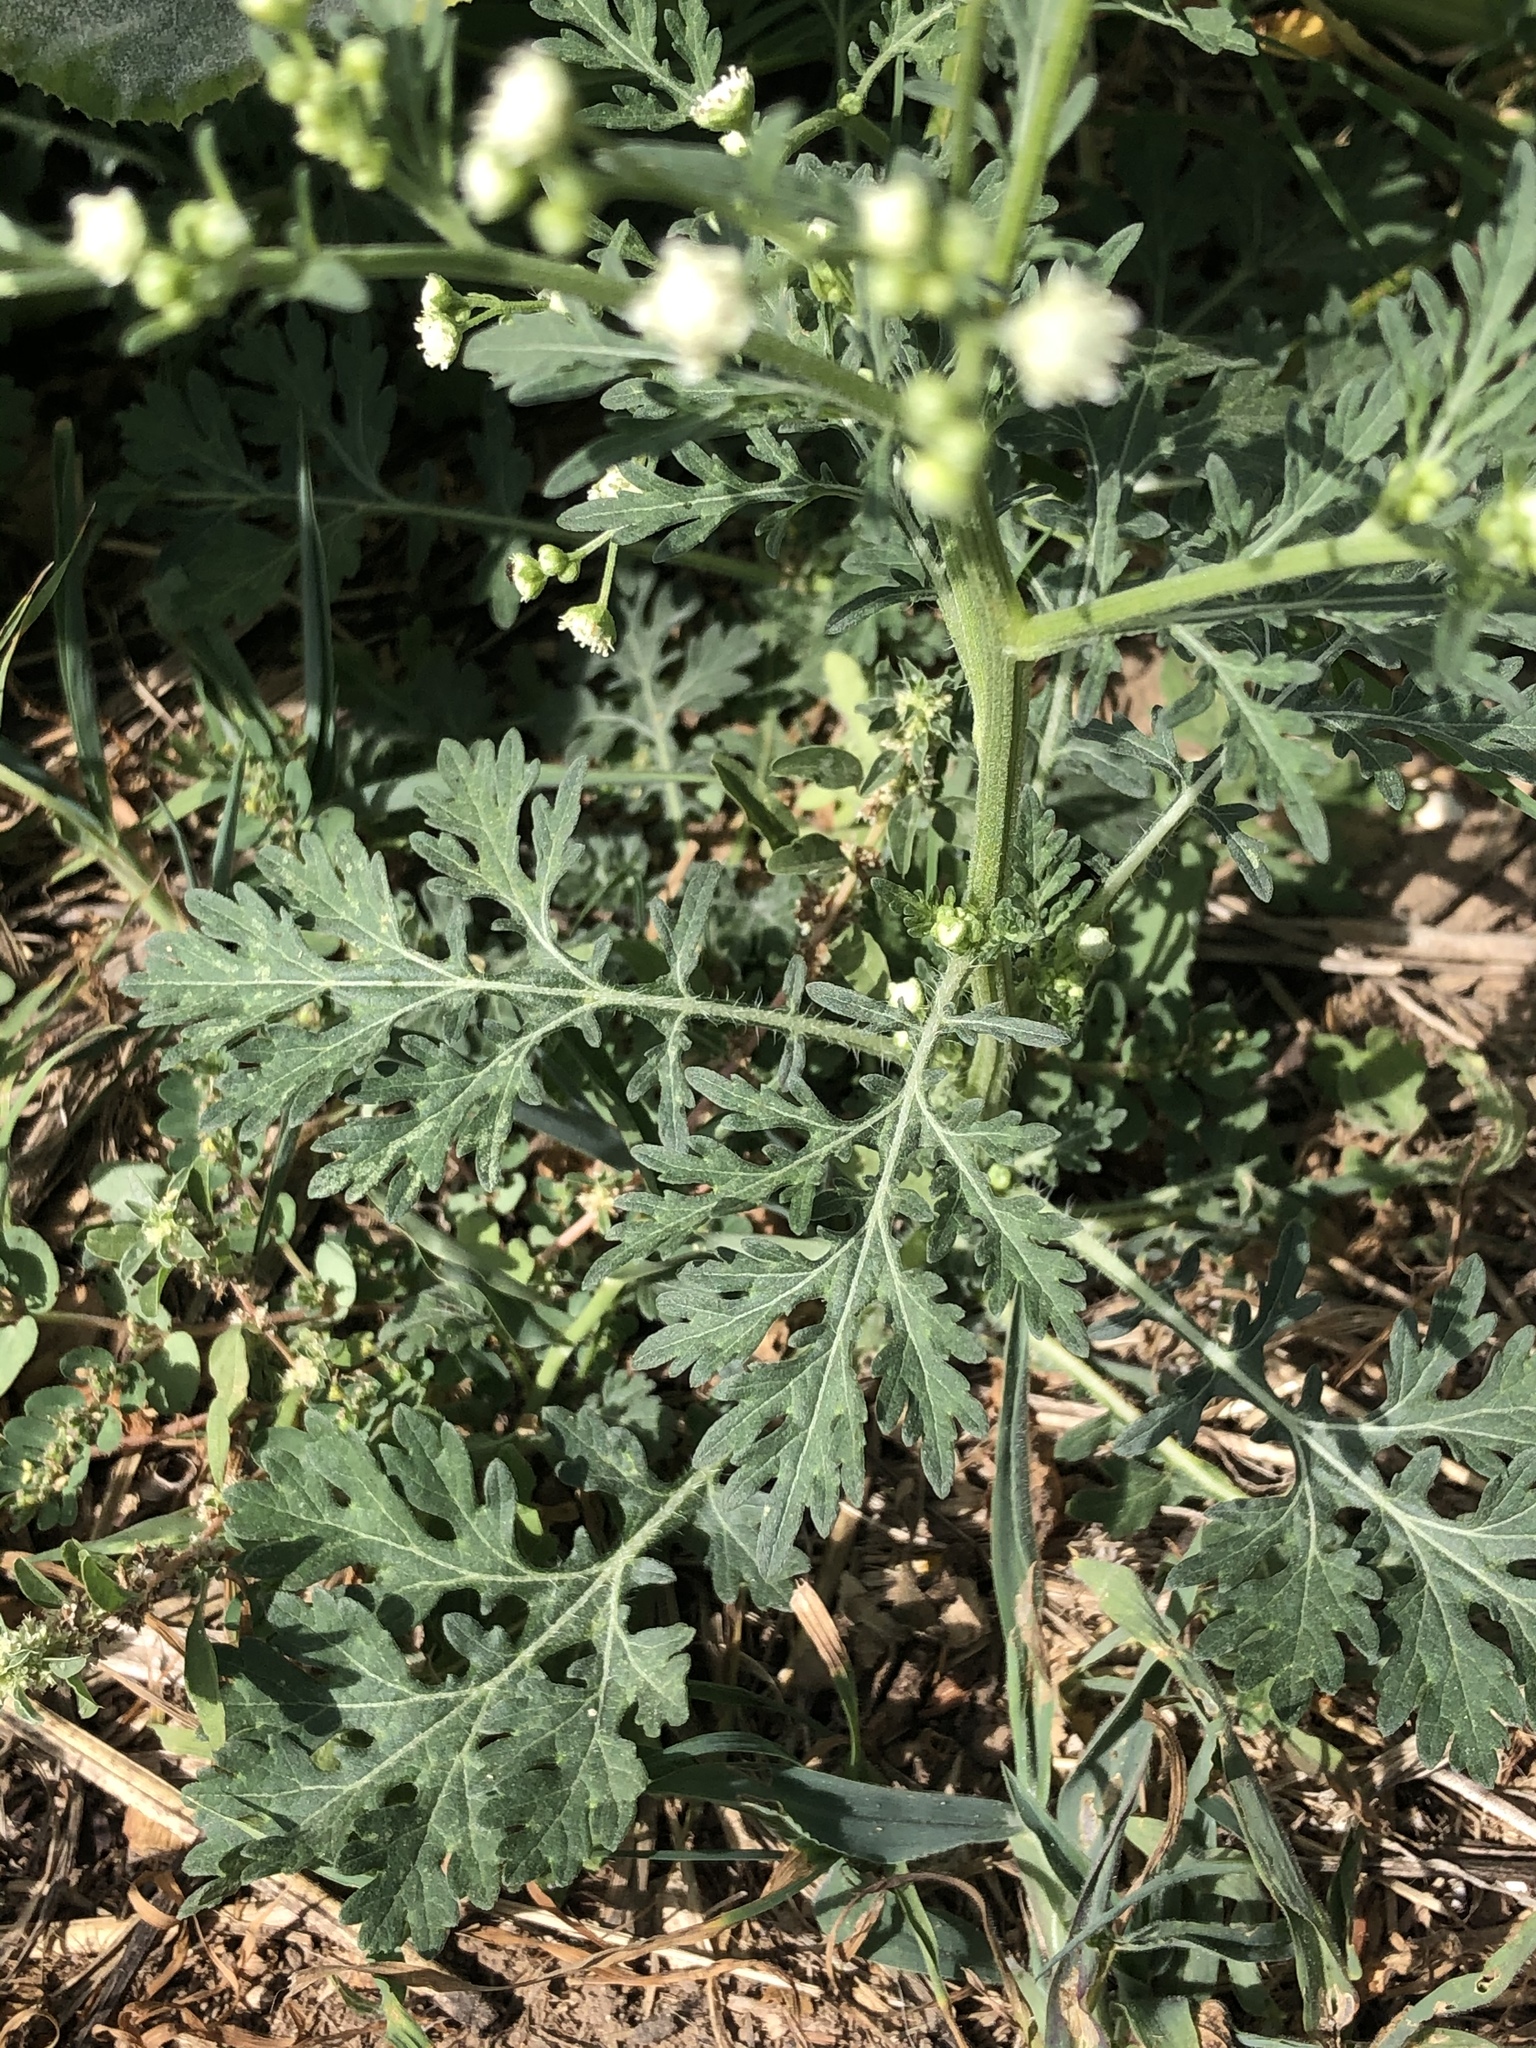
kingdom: Plantae
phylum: Tracheophyta
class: Magnoliopsida
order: Asterales
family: Asteraceae
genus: Parthenium
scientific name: Parthenium hysterophorus
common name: Santa maria feverfew
